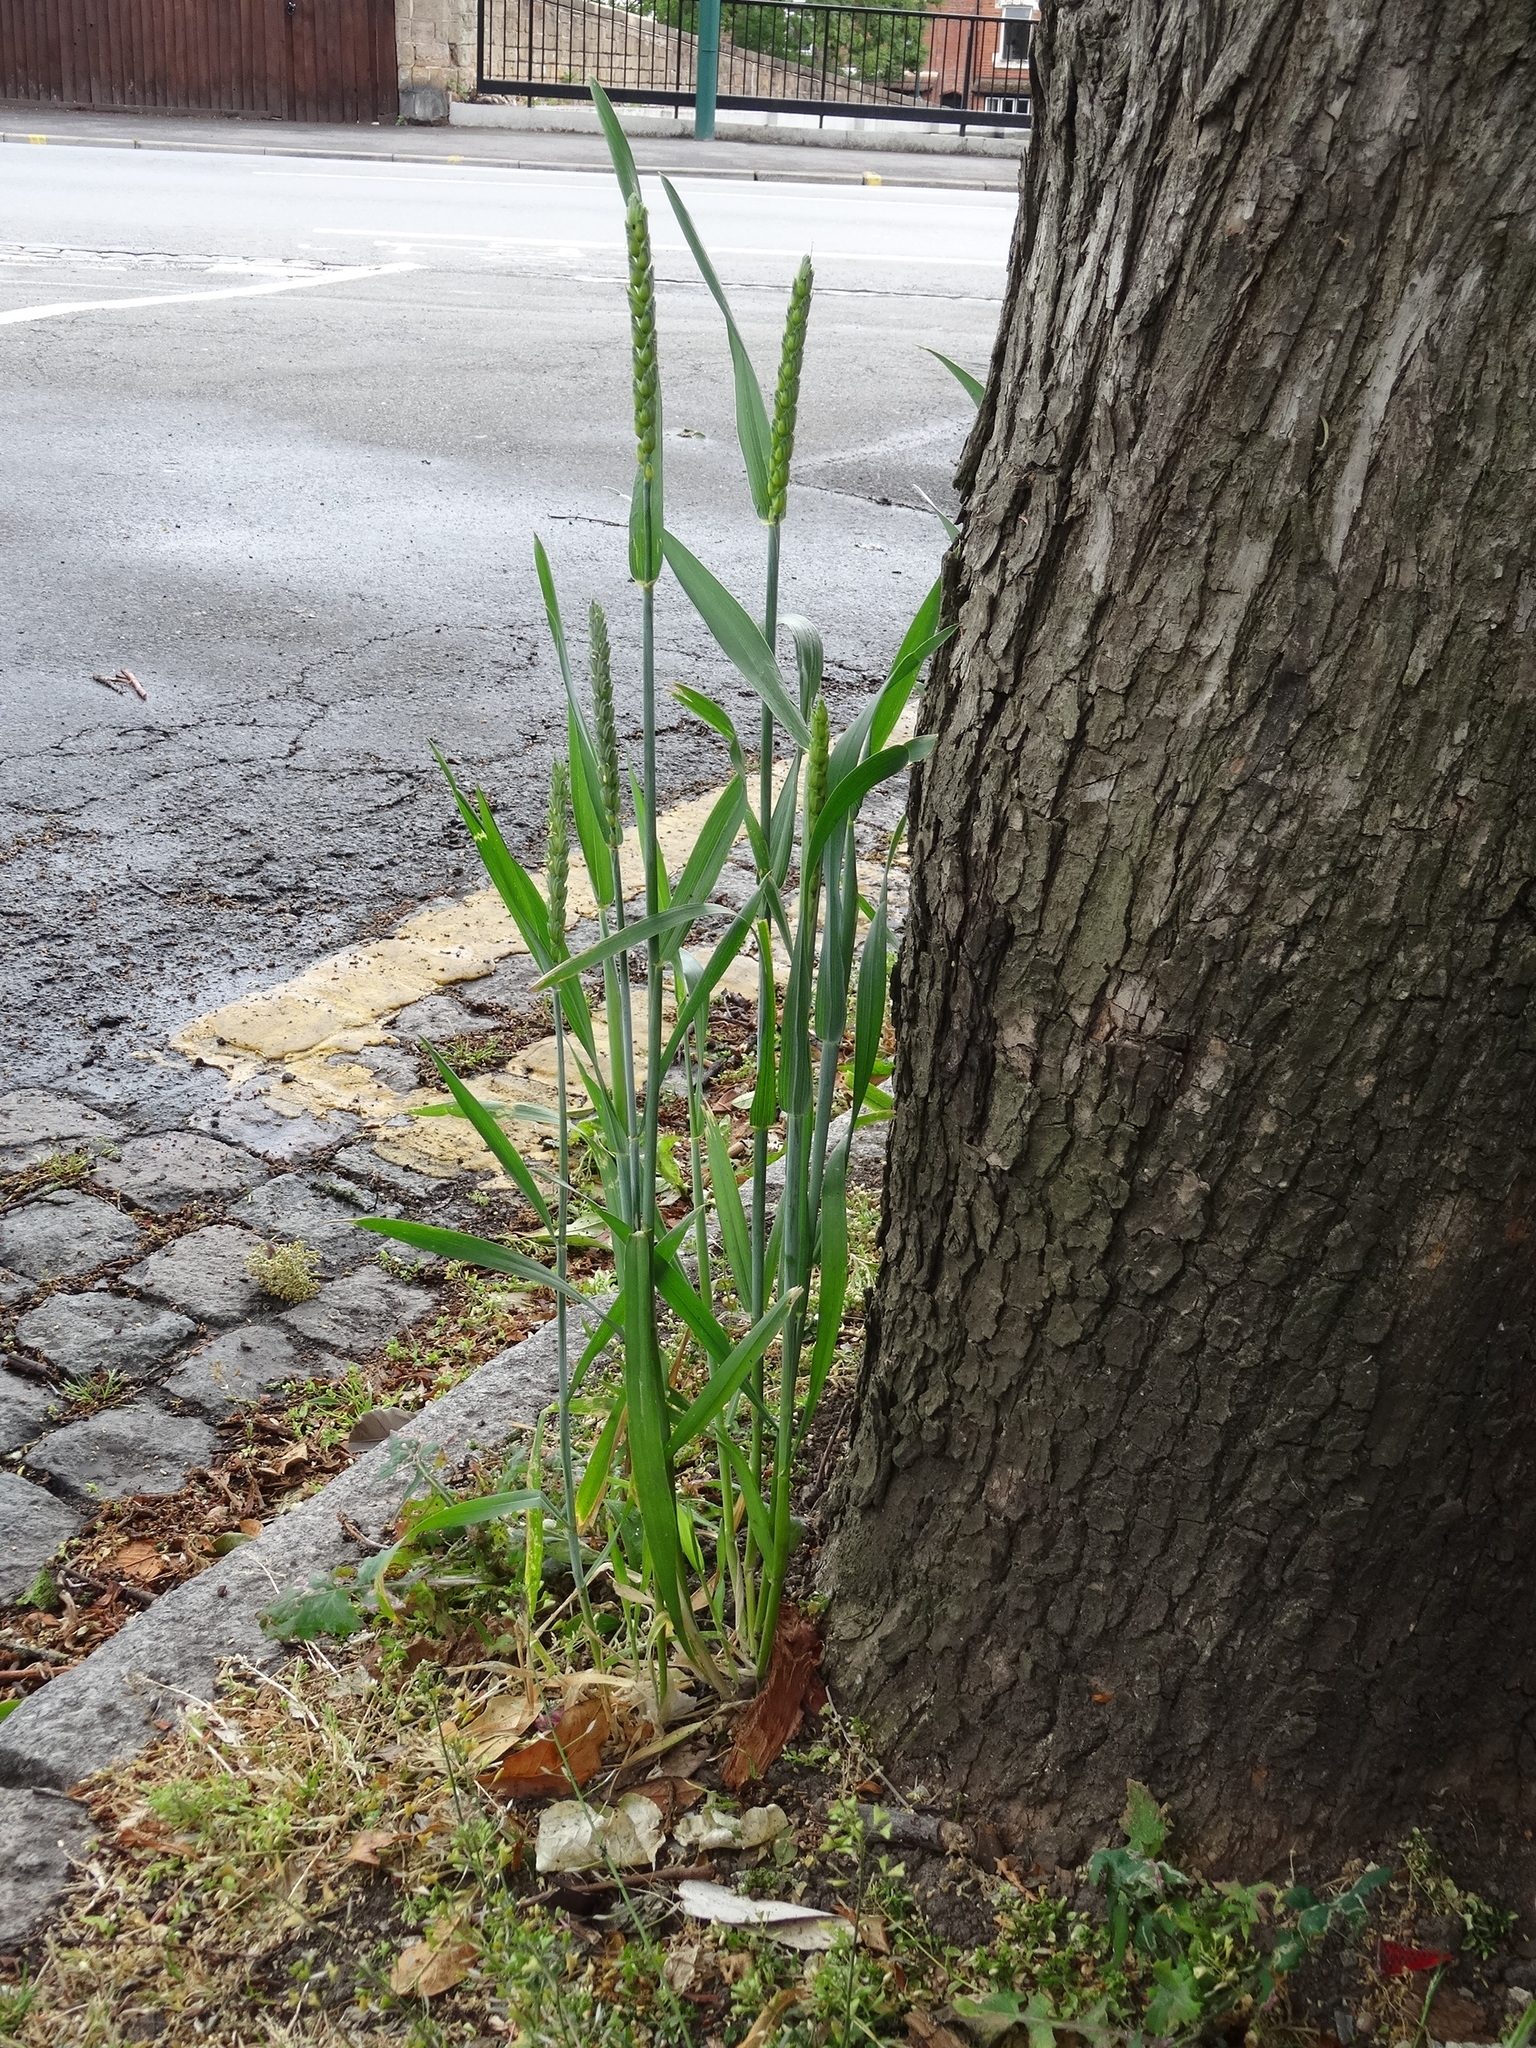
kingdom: Plantae
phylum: Tracheophyta
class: Liliopsida
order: Poales
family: Poaceae
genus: Triticum
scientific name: Triticum aestivum
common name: Common wheat
